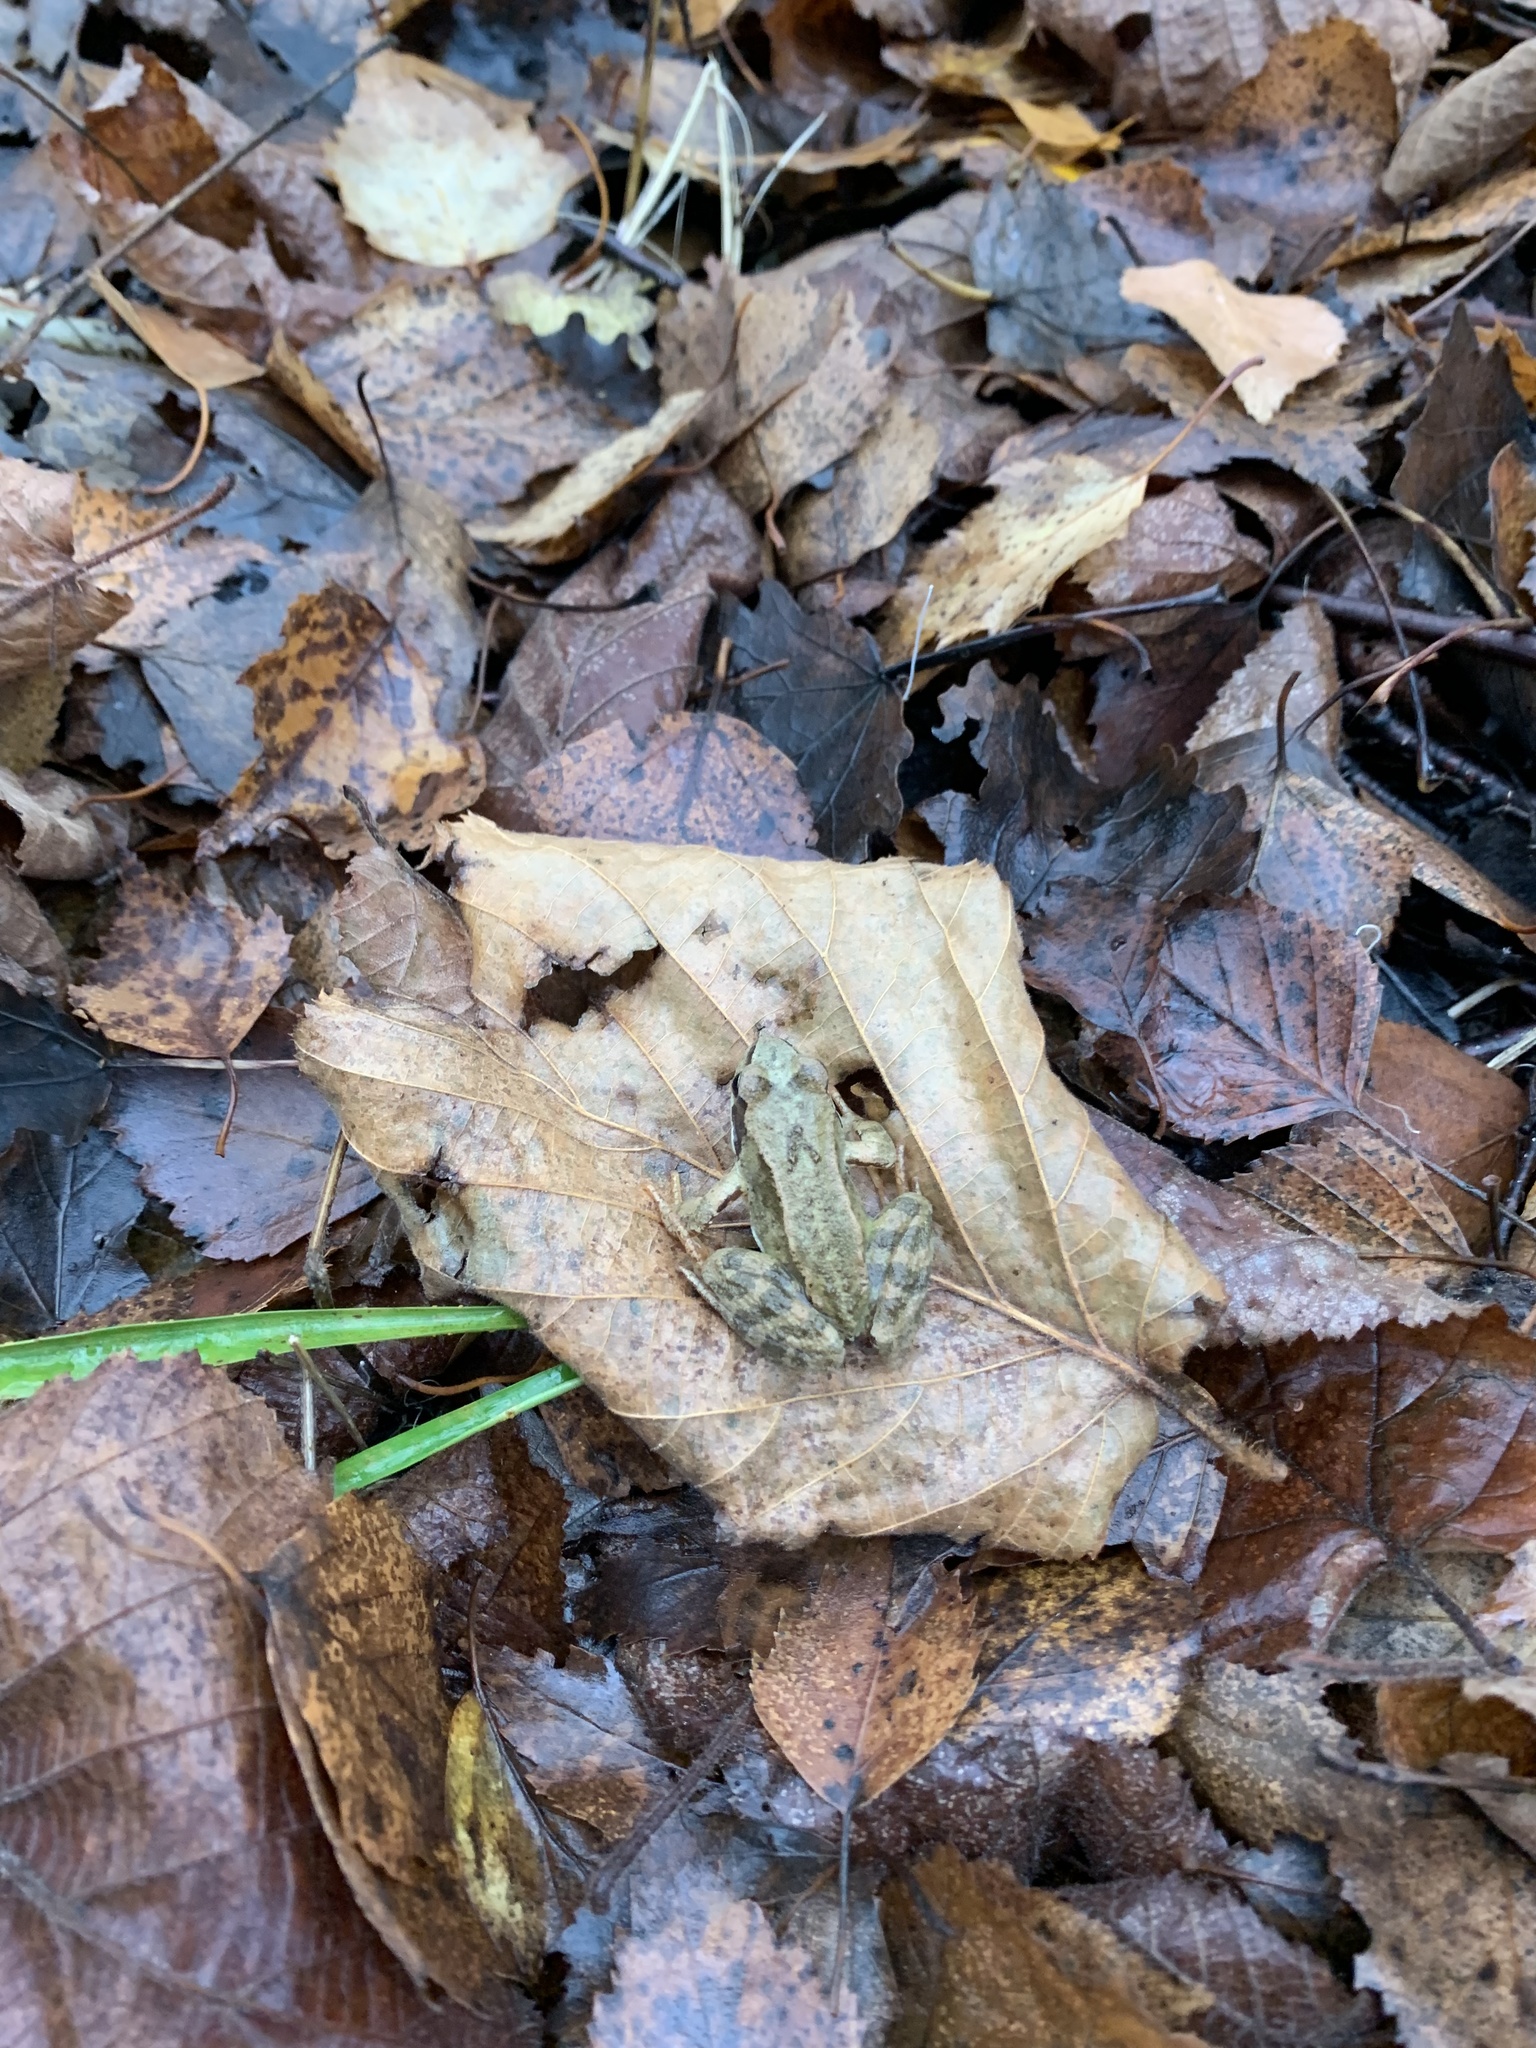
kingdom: Animalia
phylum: Chordata
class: Amphibia
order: Anura
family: Ranidae
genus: Rana
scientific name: Rana temporaria
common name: Common frog
